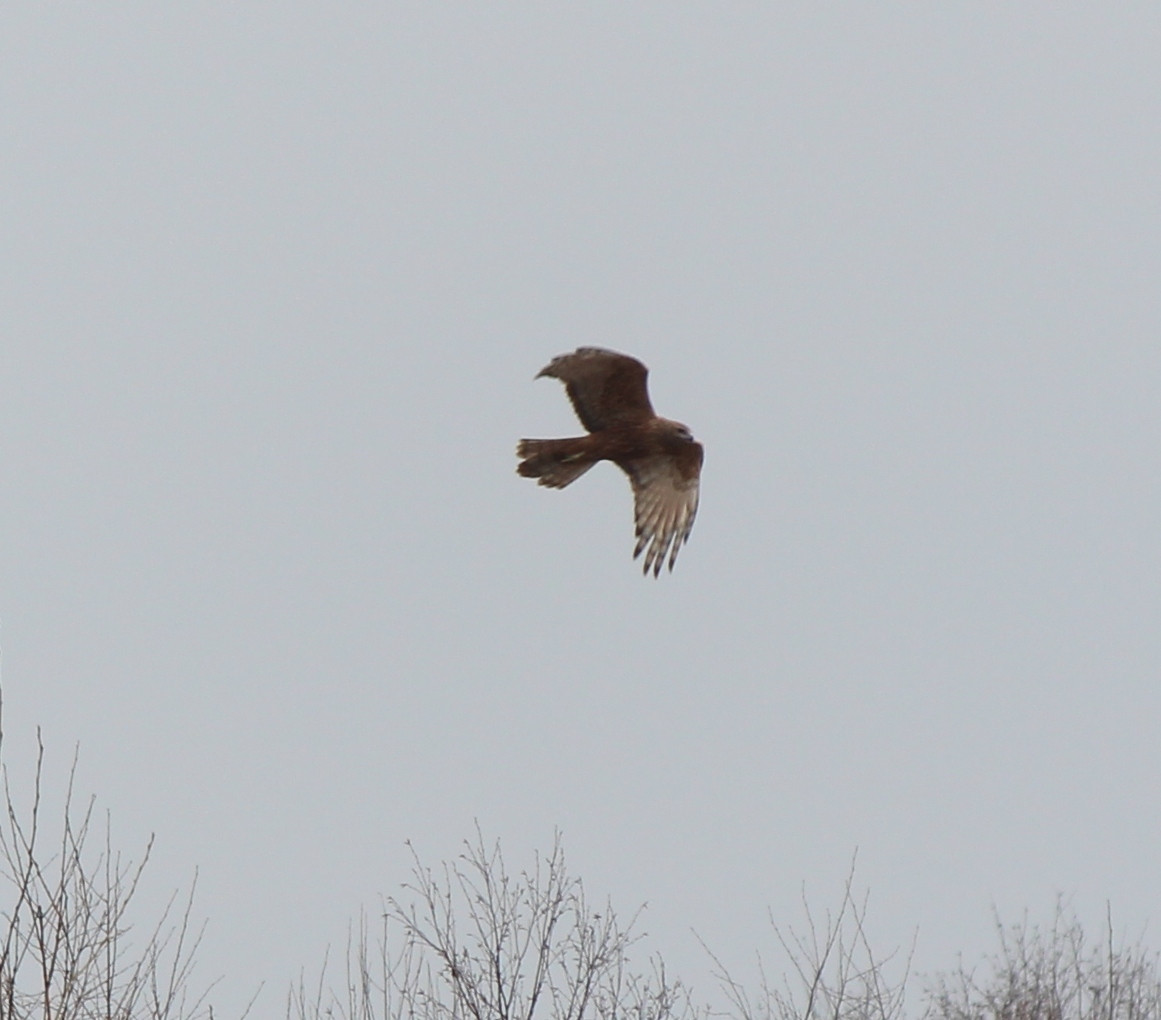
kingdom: Animalia
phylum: Chordata
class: Aves
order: Accipitriformes
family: Accipitridae
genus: Circus
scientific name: Circus spilonotus
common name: Eastern marsh-harrier
